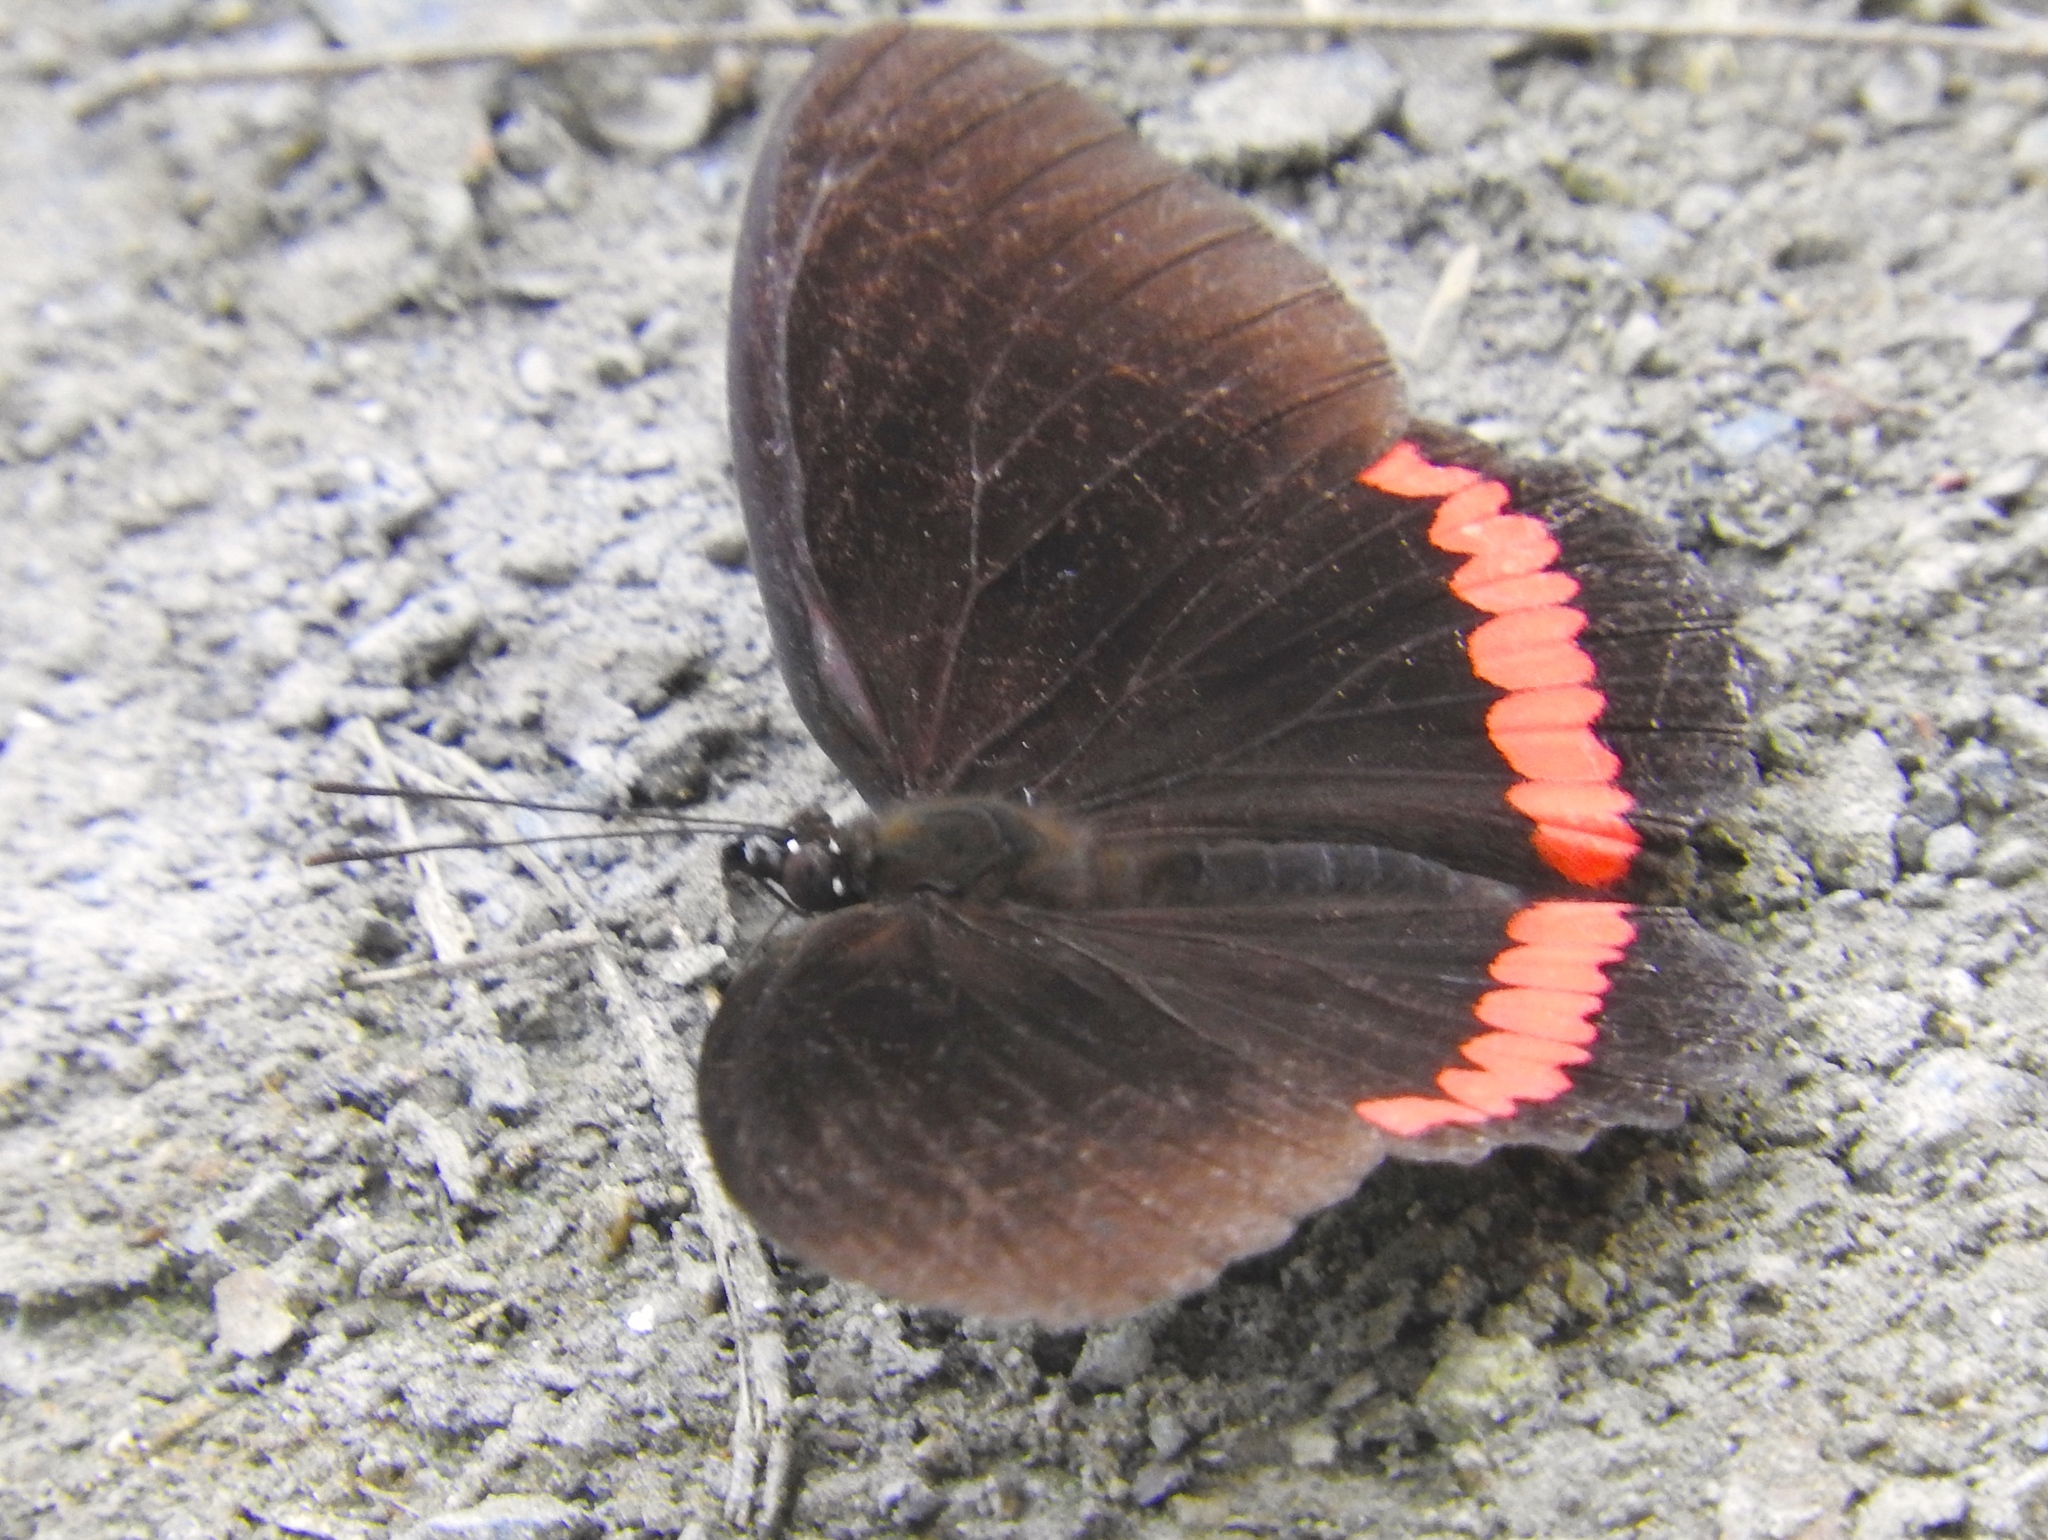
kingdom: Animalia
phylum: Arthropoda
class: Insecta
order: Lepidoptera
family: Nymphalidae
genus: Biblis
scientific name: Biblis
